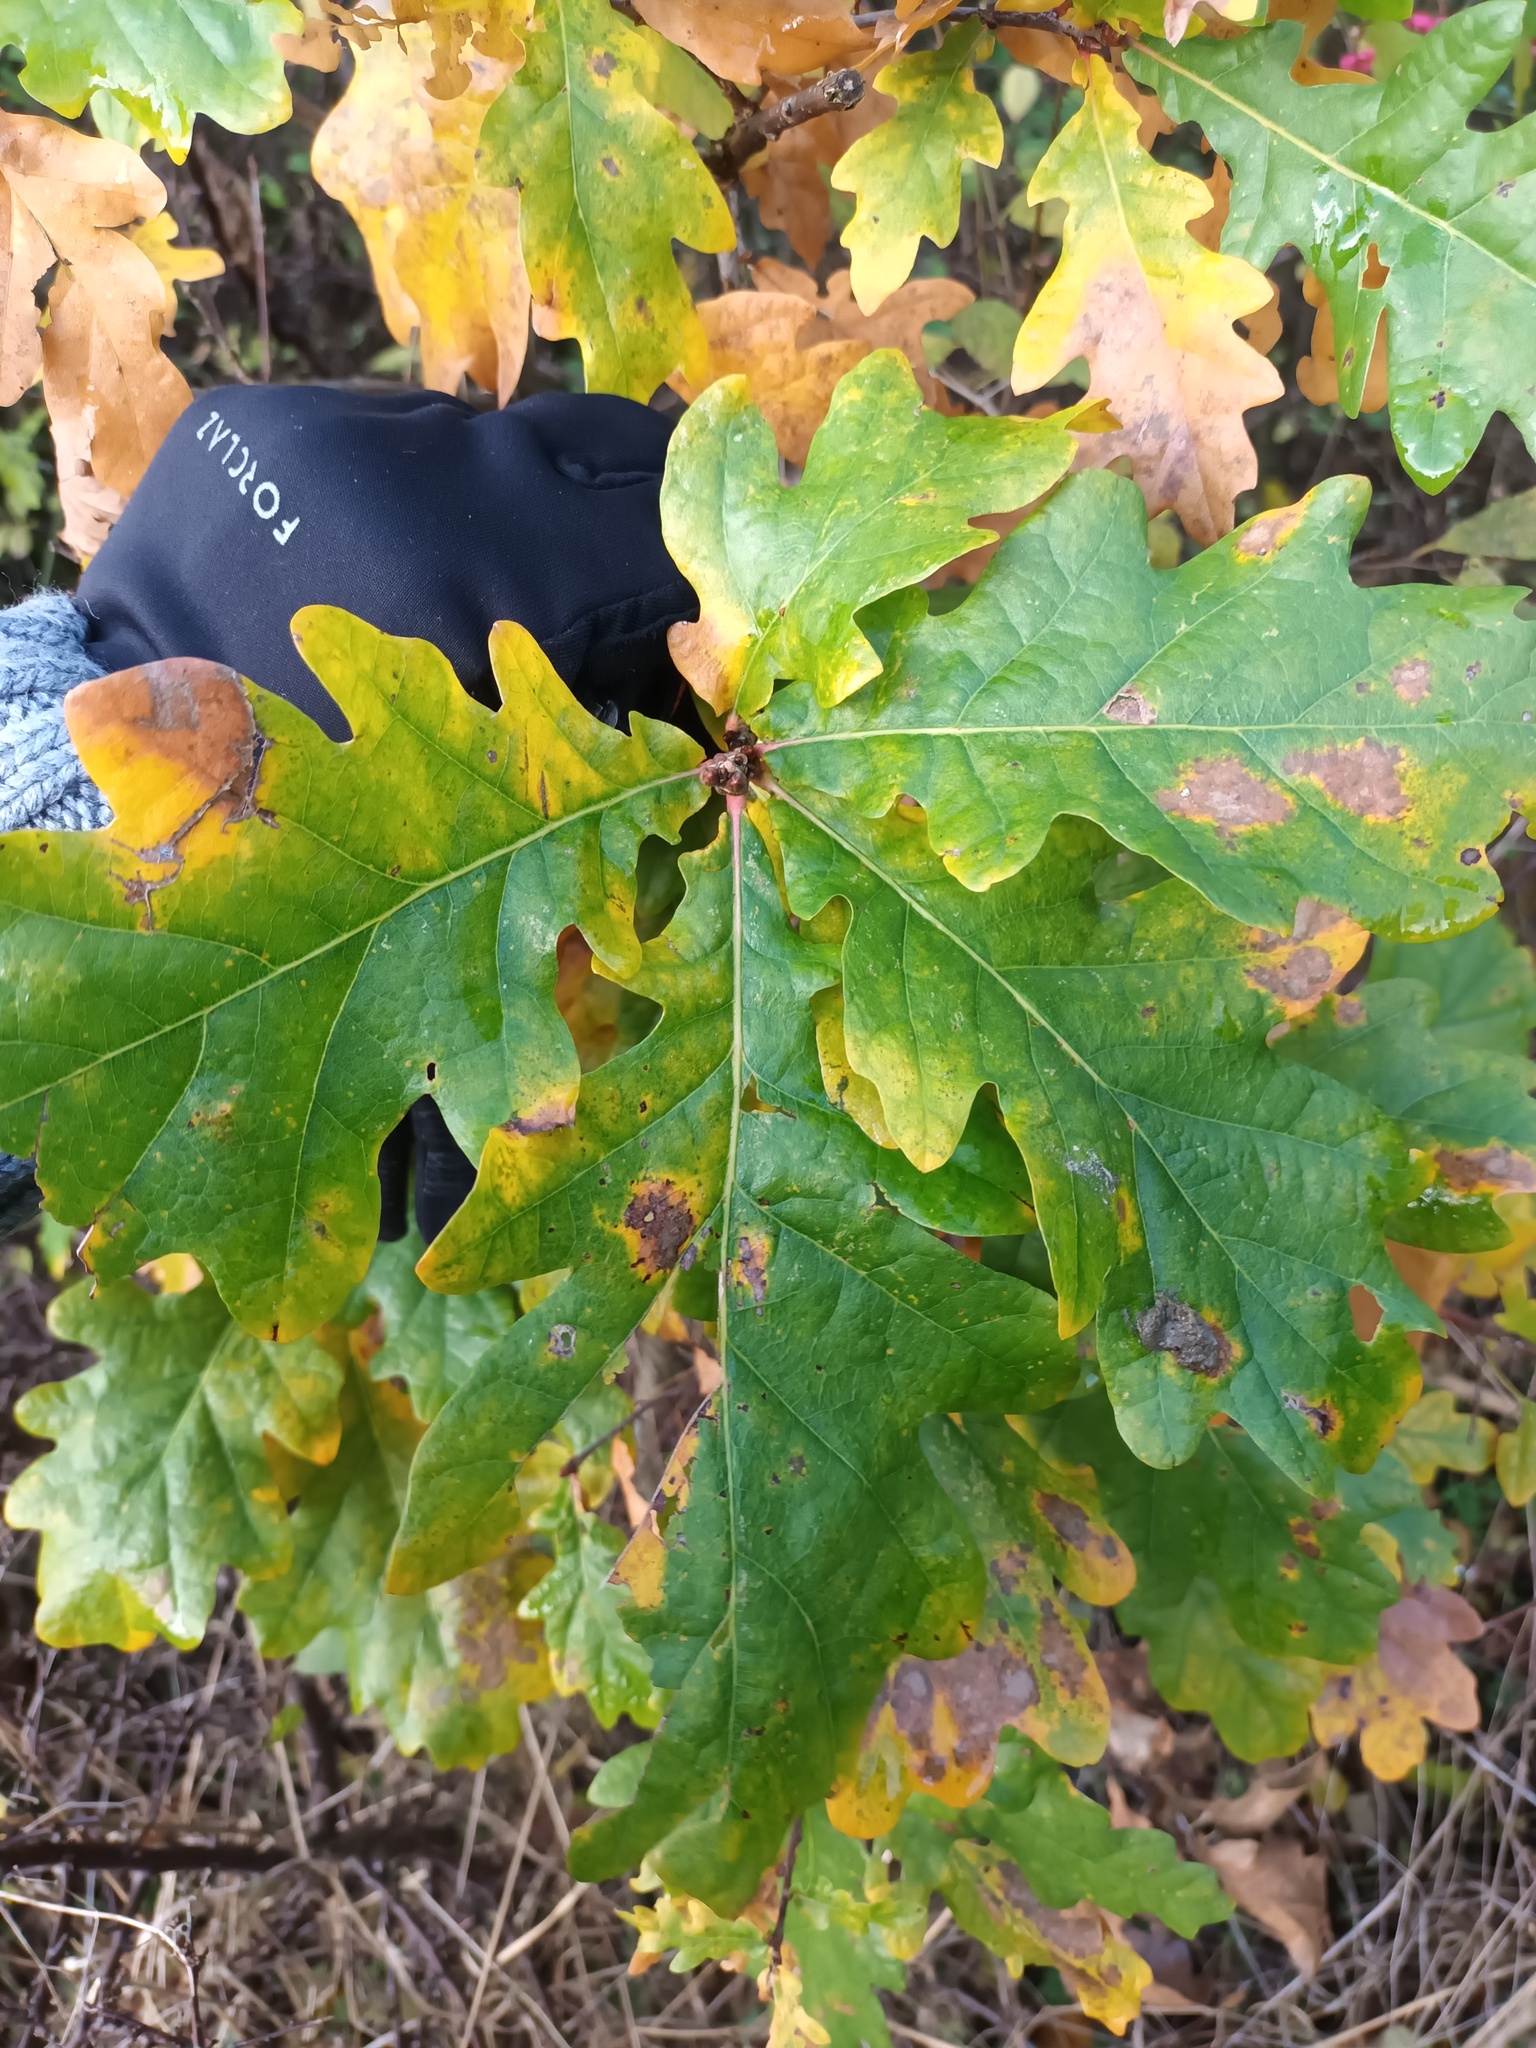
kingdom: Plantae
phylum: Tracheophyta
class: Magnoliopsida
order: Fagales
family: Fagaceae
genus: Quercus
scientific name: Quercus robur
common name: Pedunculate oak
